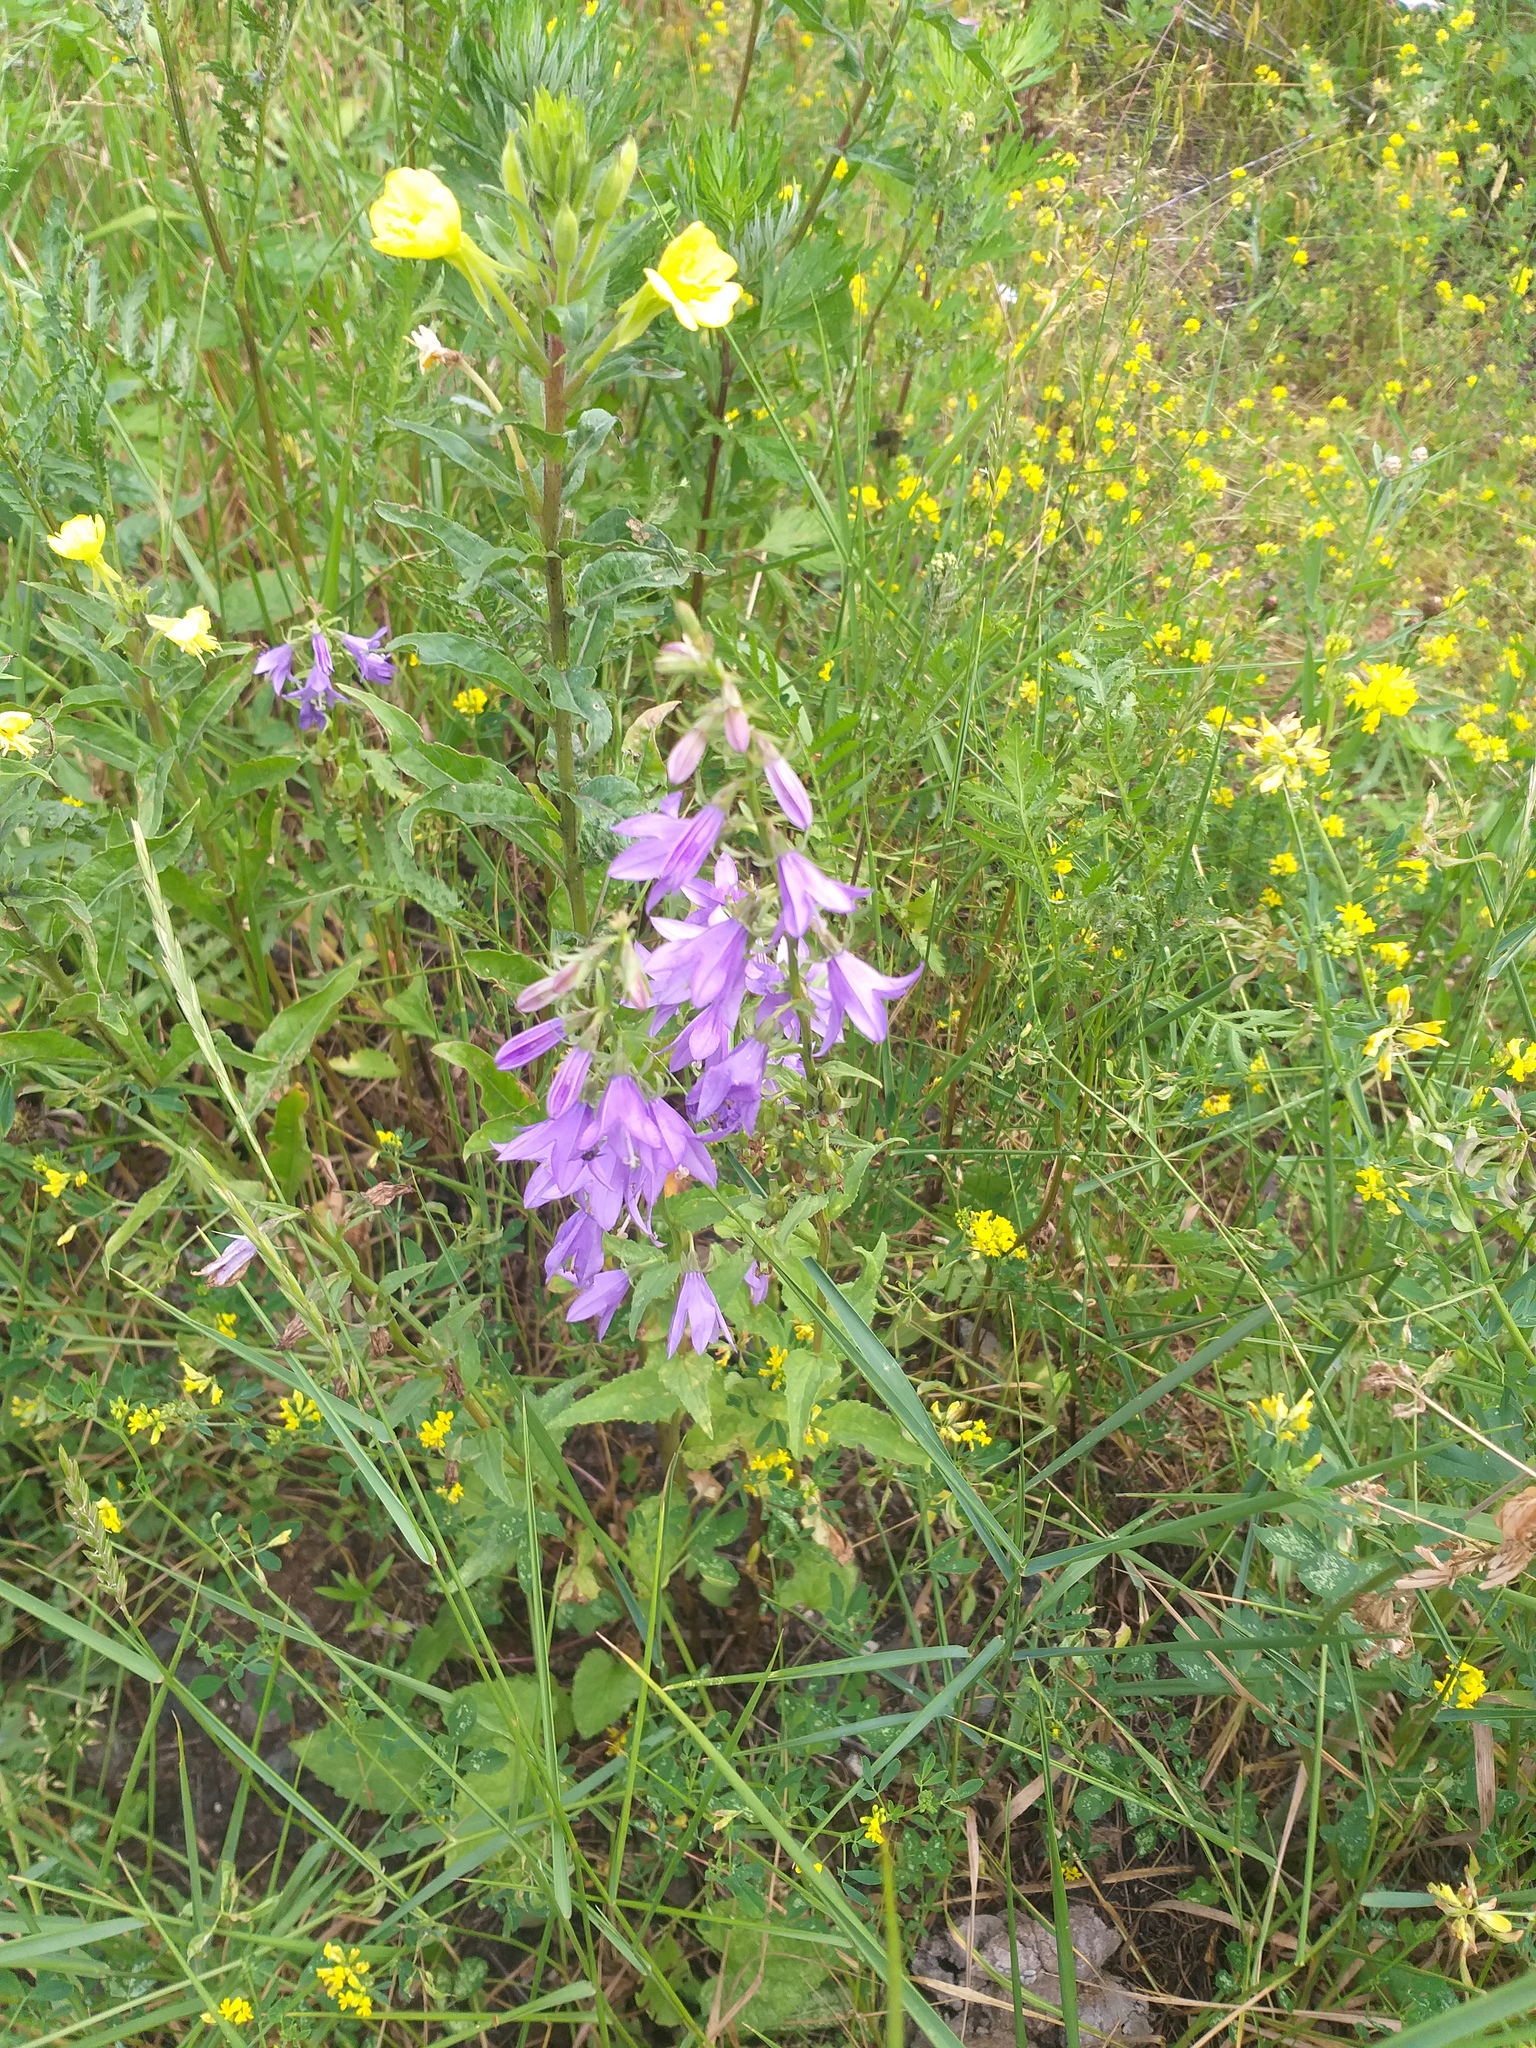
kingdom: Plantae
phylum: Tracheophyta
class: Magnoliopsida
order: Asterales
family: Campanulaceae
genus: Campanula
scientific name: Campanula rapunculoides
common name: Creeping bellflower
